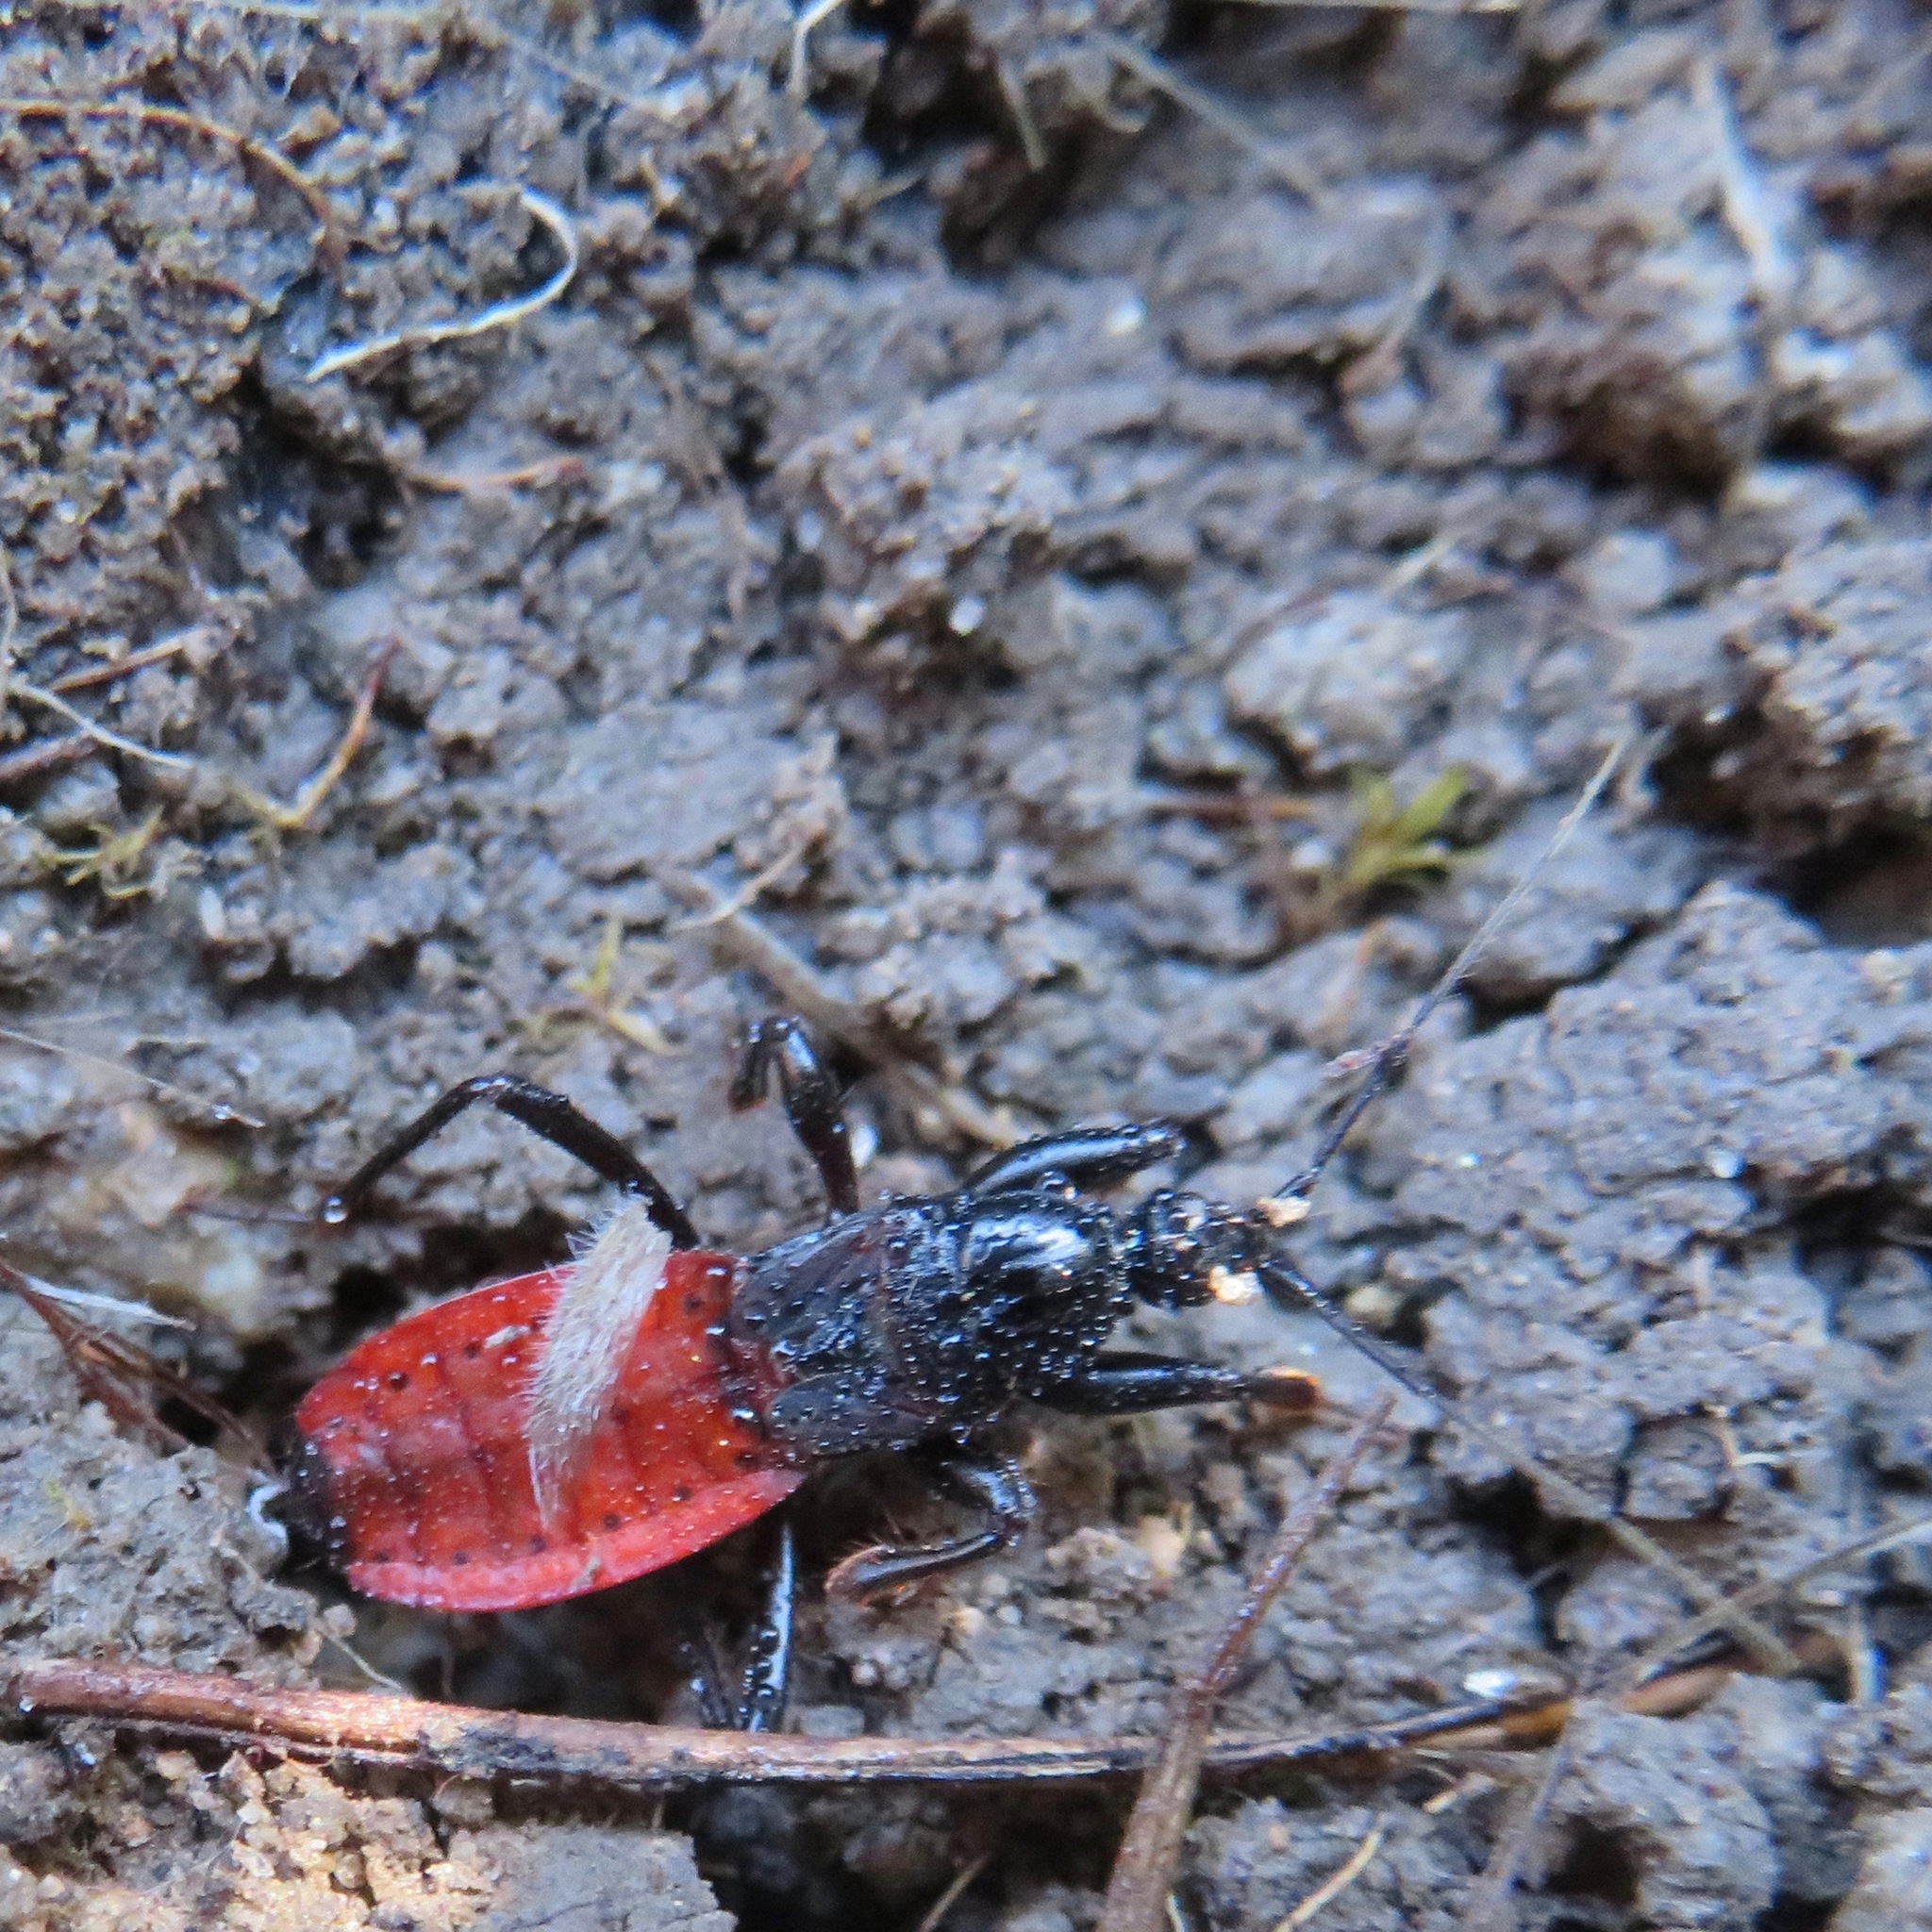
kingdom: Animalia
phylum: Arthropoda
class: Insecta
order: Hemiptera
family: Reduviidae
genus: Melanolestes
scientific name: Melanolestes picipes
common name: Assassin bug
